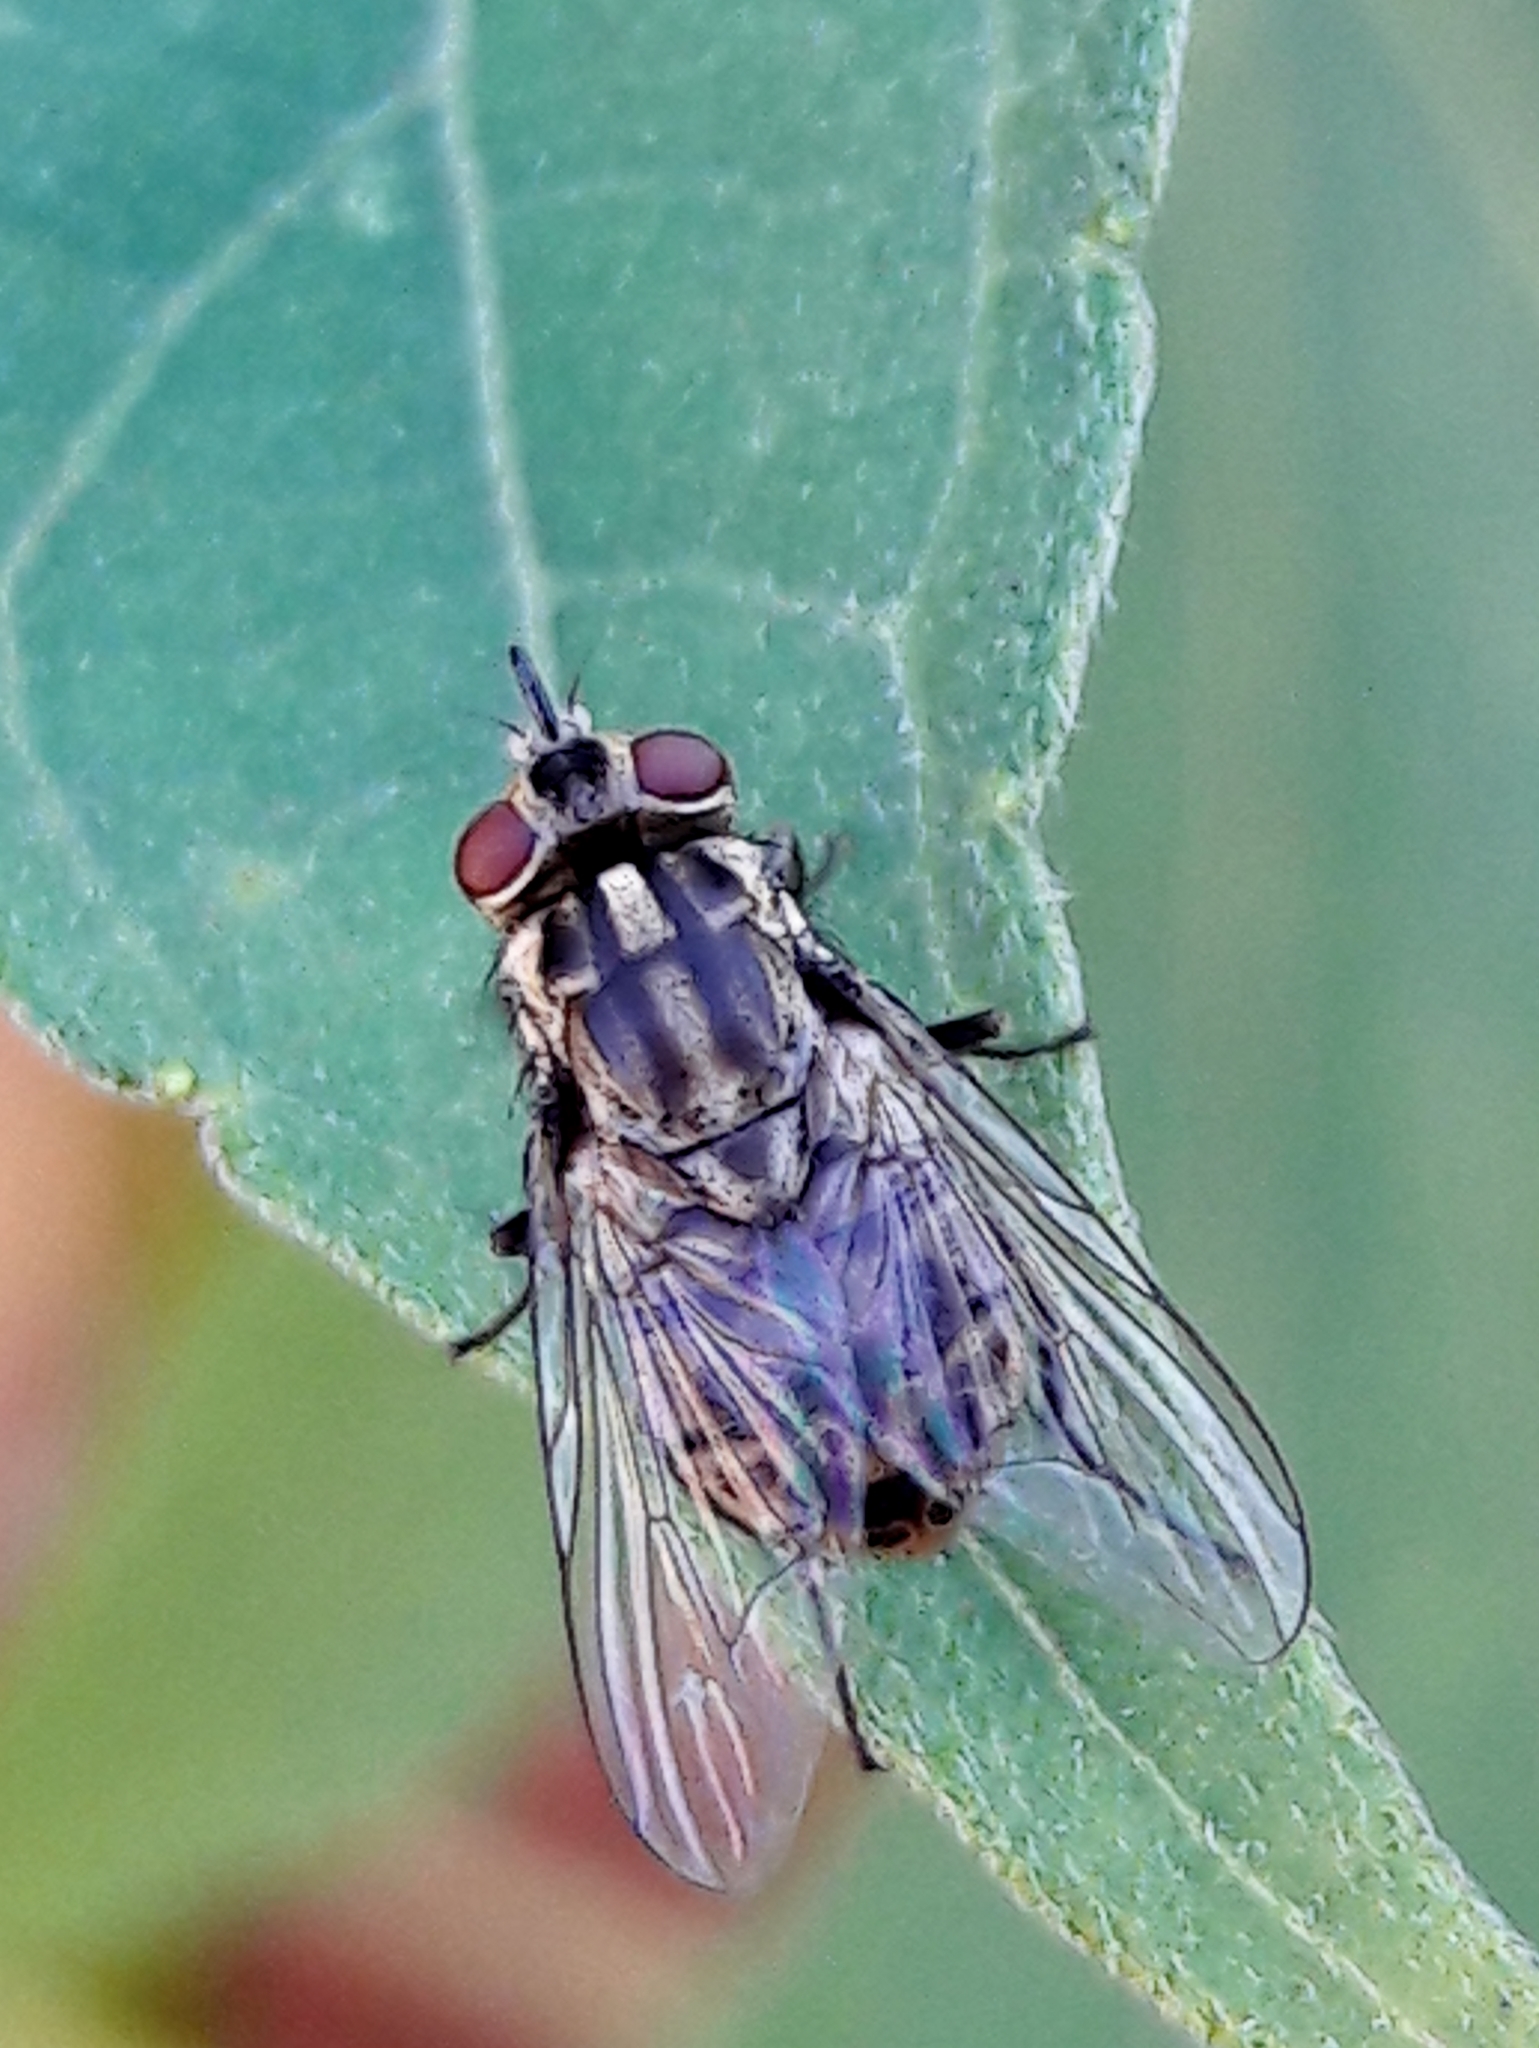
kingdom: Animalia
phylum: Arthropoda
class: Insecta
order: Diptera
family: Muscidae
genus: Stomoxys
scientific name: Stomoxys calcitrans
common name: Stable fly
